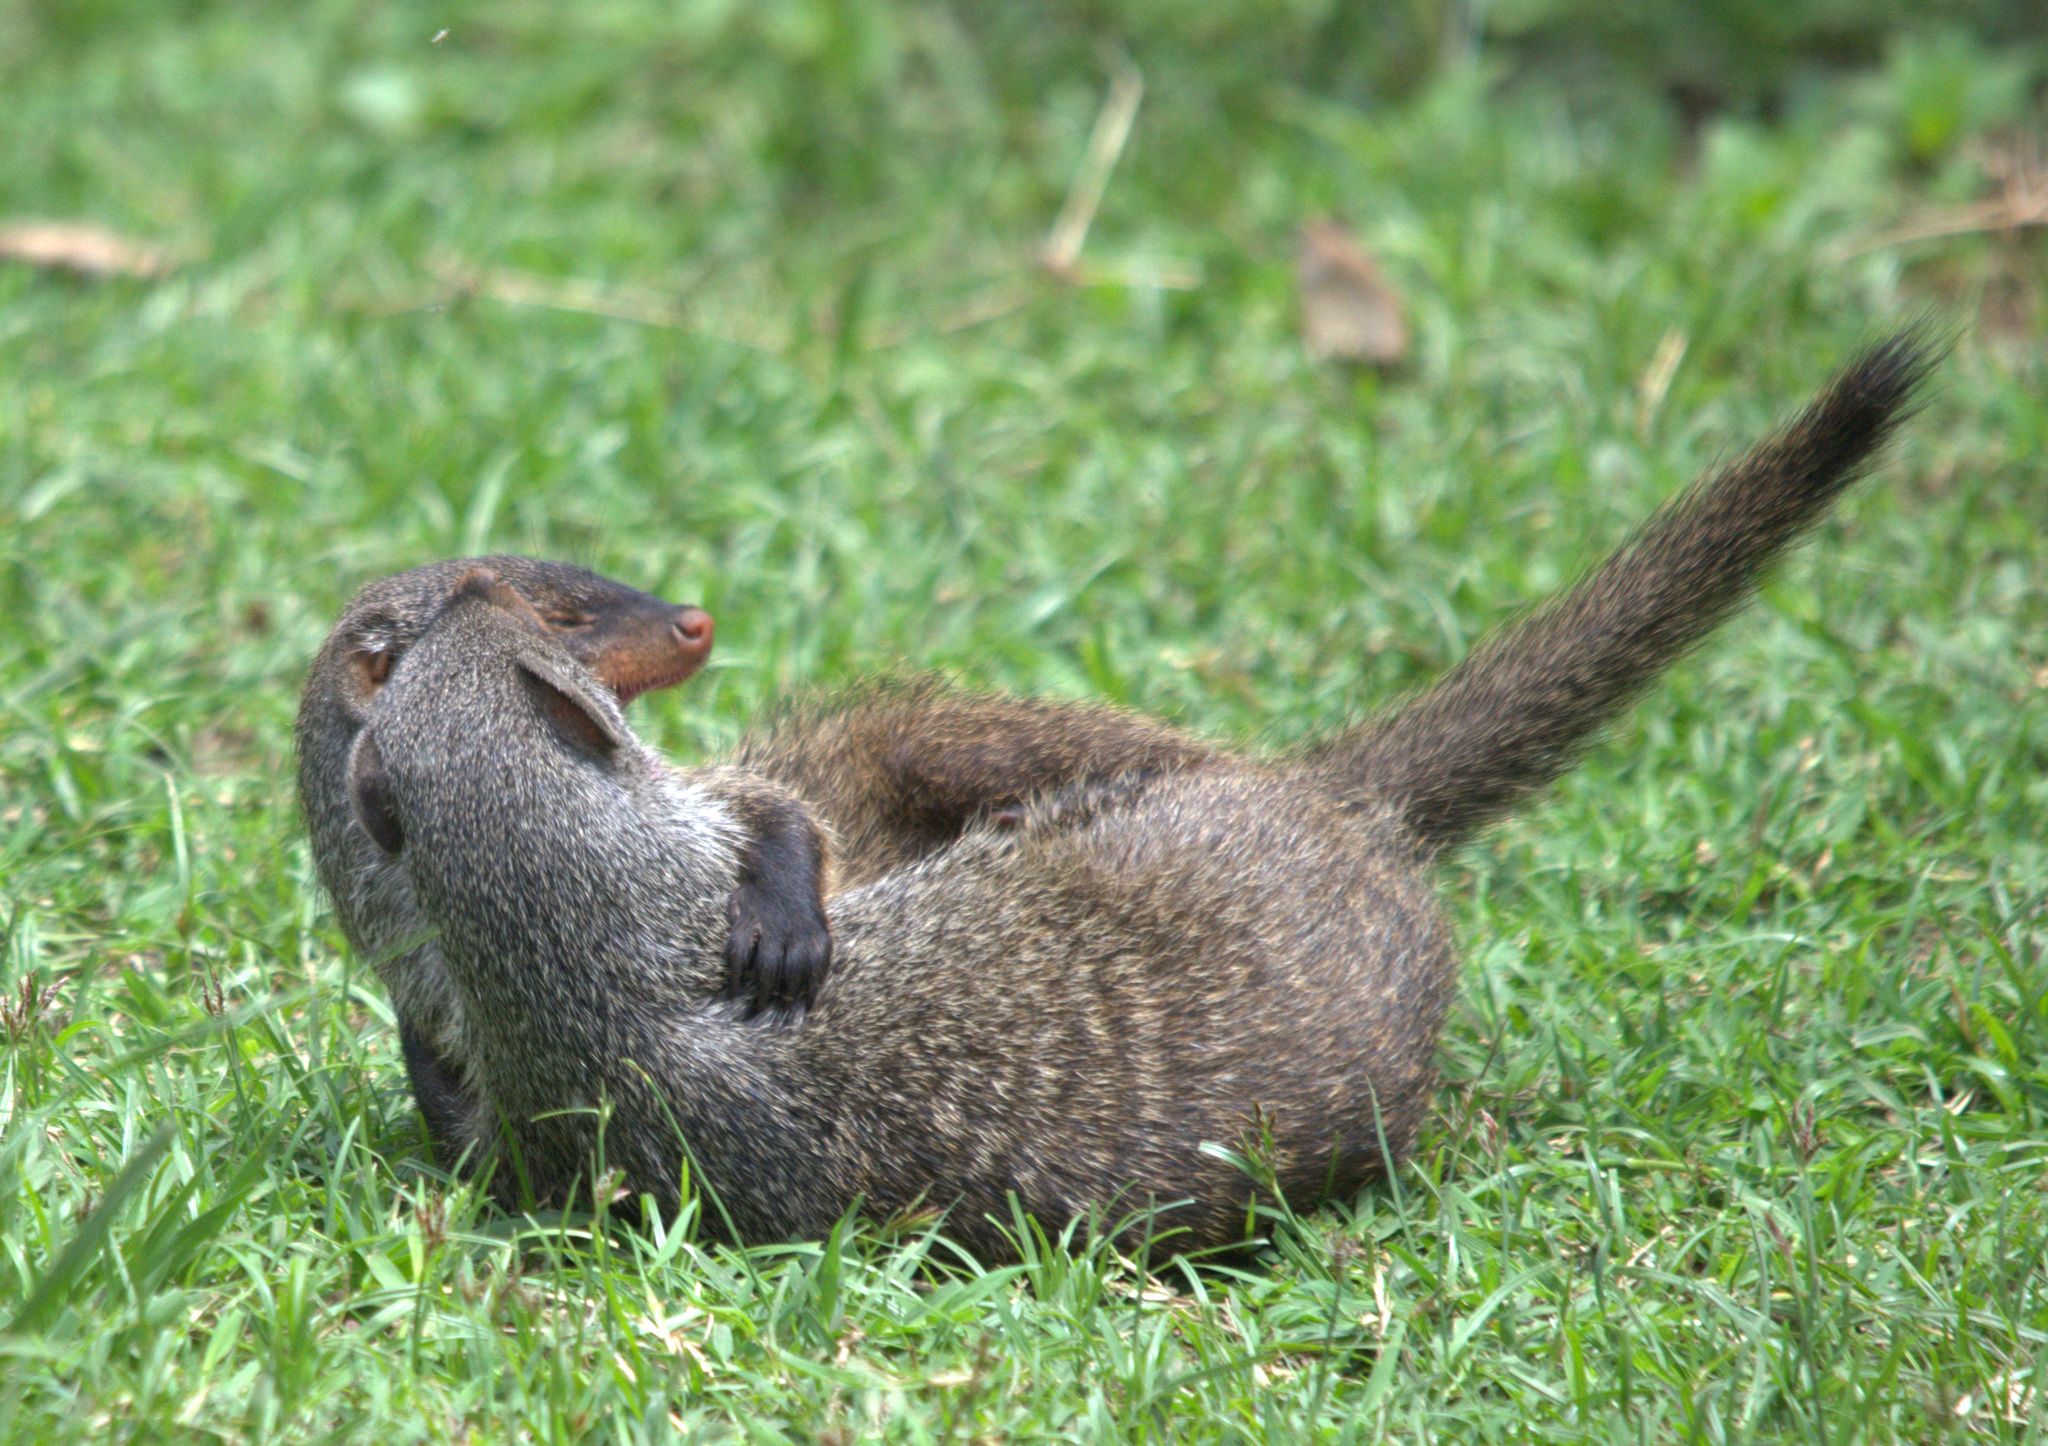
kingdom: Animalia
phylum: Chordata
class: Mammalia
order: Carnivora
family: Herpestidae
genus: Mungos
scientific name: Mungos mungo
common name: Banded mongoose
